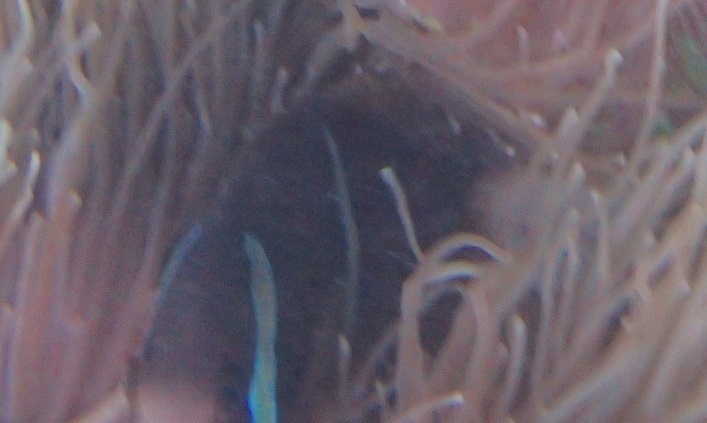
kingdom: Animalia
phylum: Chordata
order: Perciformes
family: Pomacentridae
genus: Amphiprion
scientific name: Amphiprion akindynos
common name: Barrier reef anemonefish
